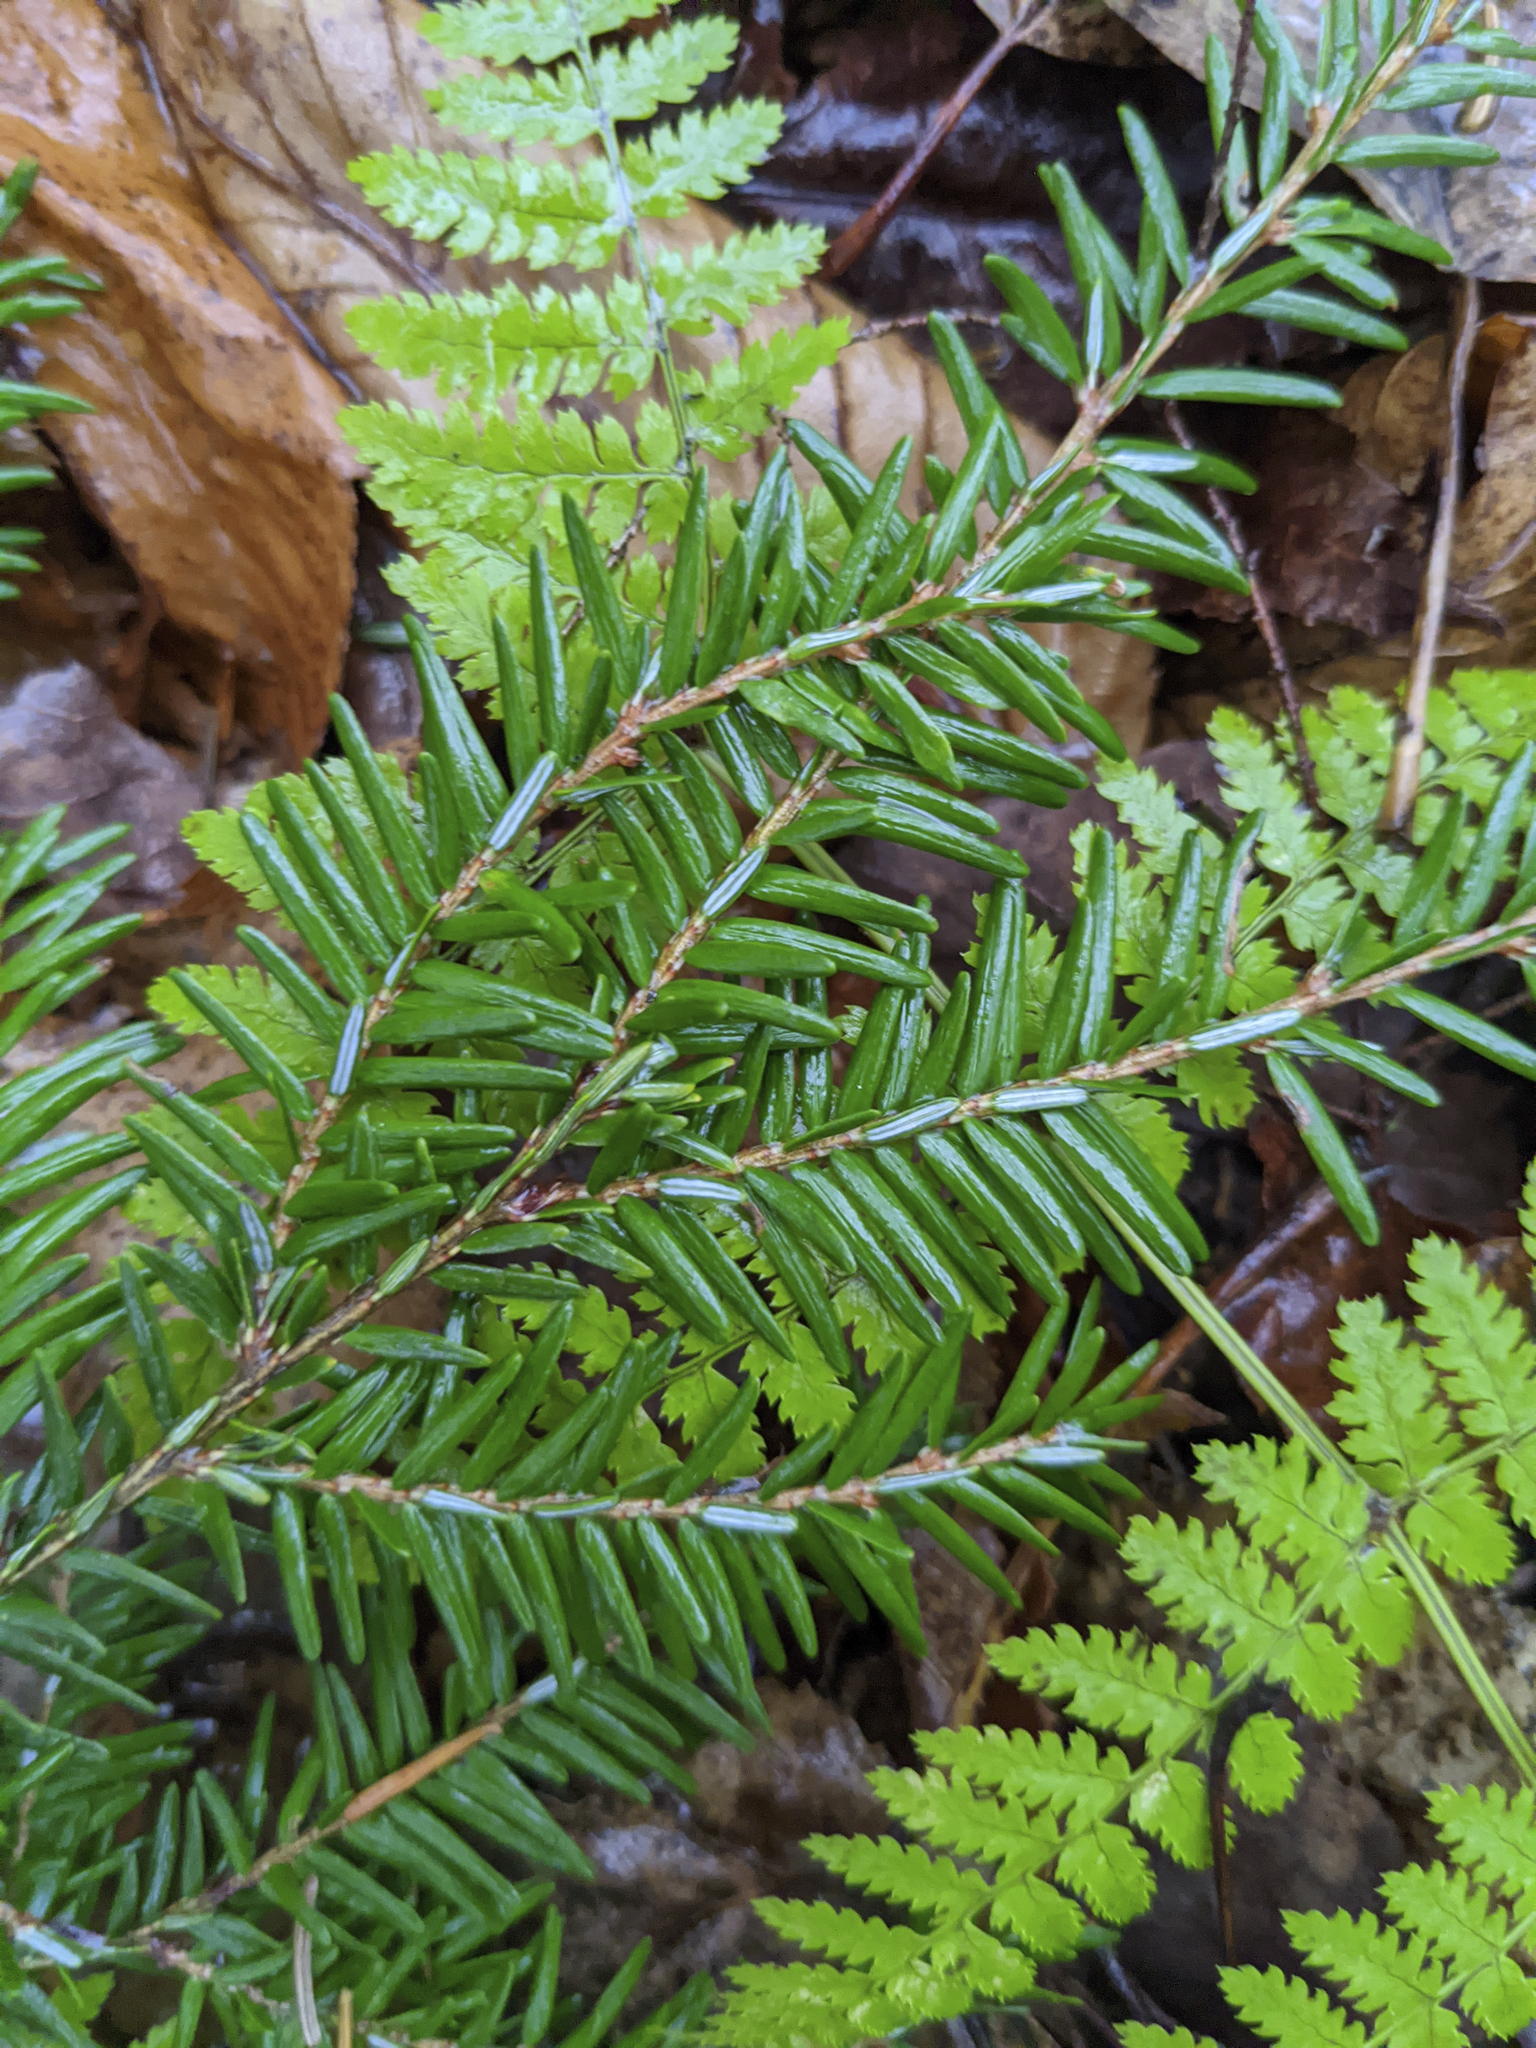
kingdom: Plantae
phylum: Tracheophyta
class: Pinopsida
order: Pinales
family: Pinaceae
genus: Tsuga
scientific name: Tsuga canadensis
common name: Eastern hemlock
